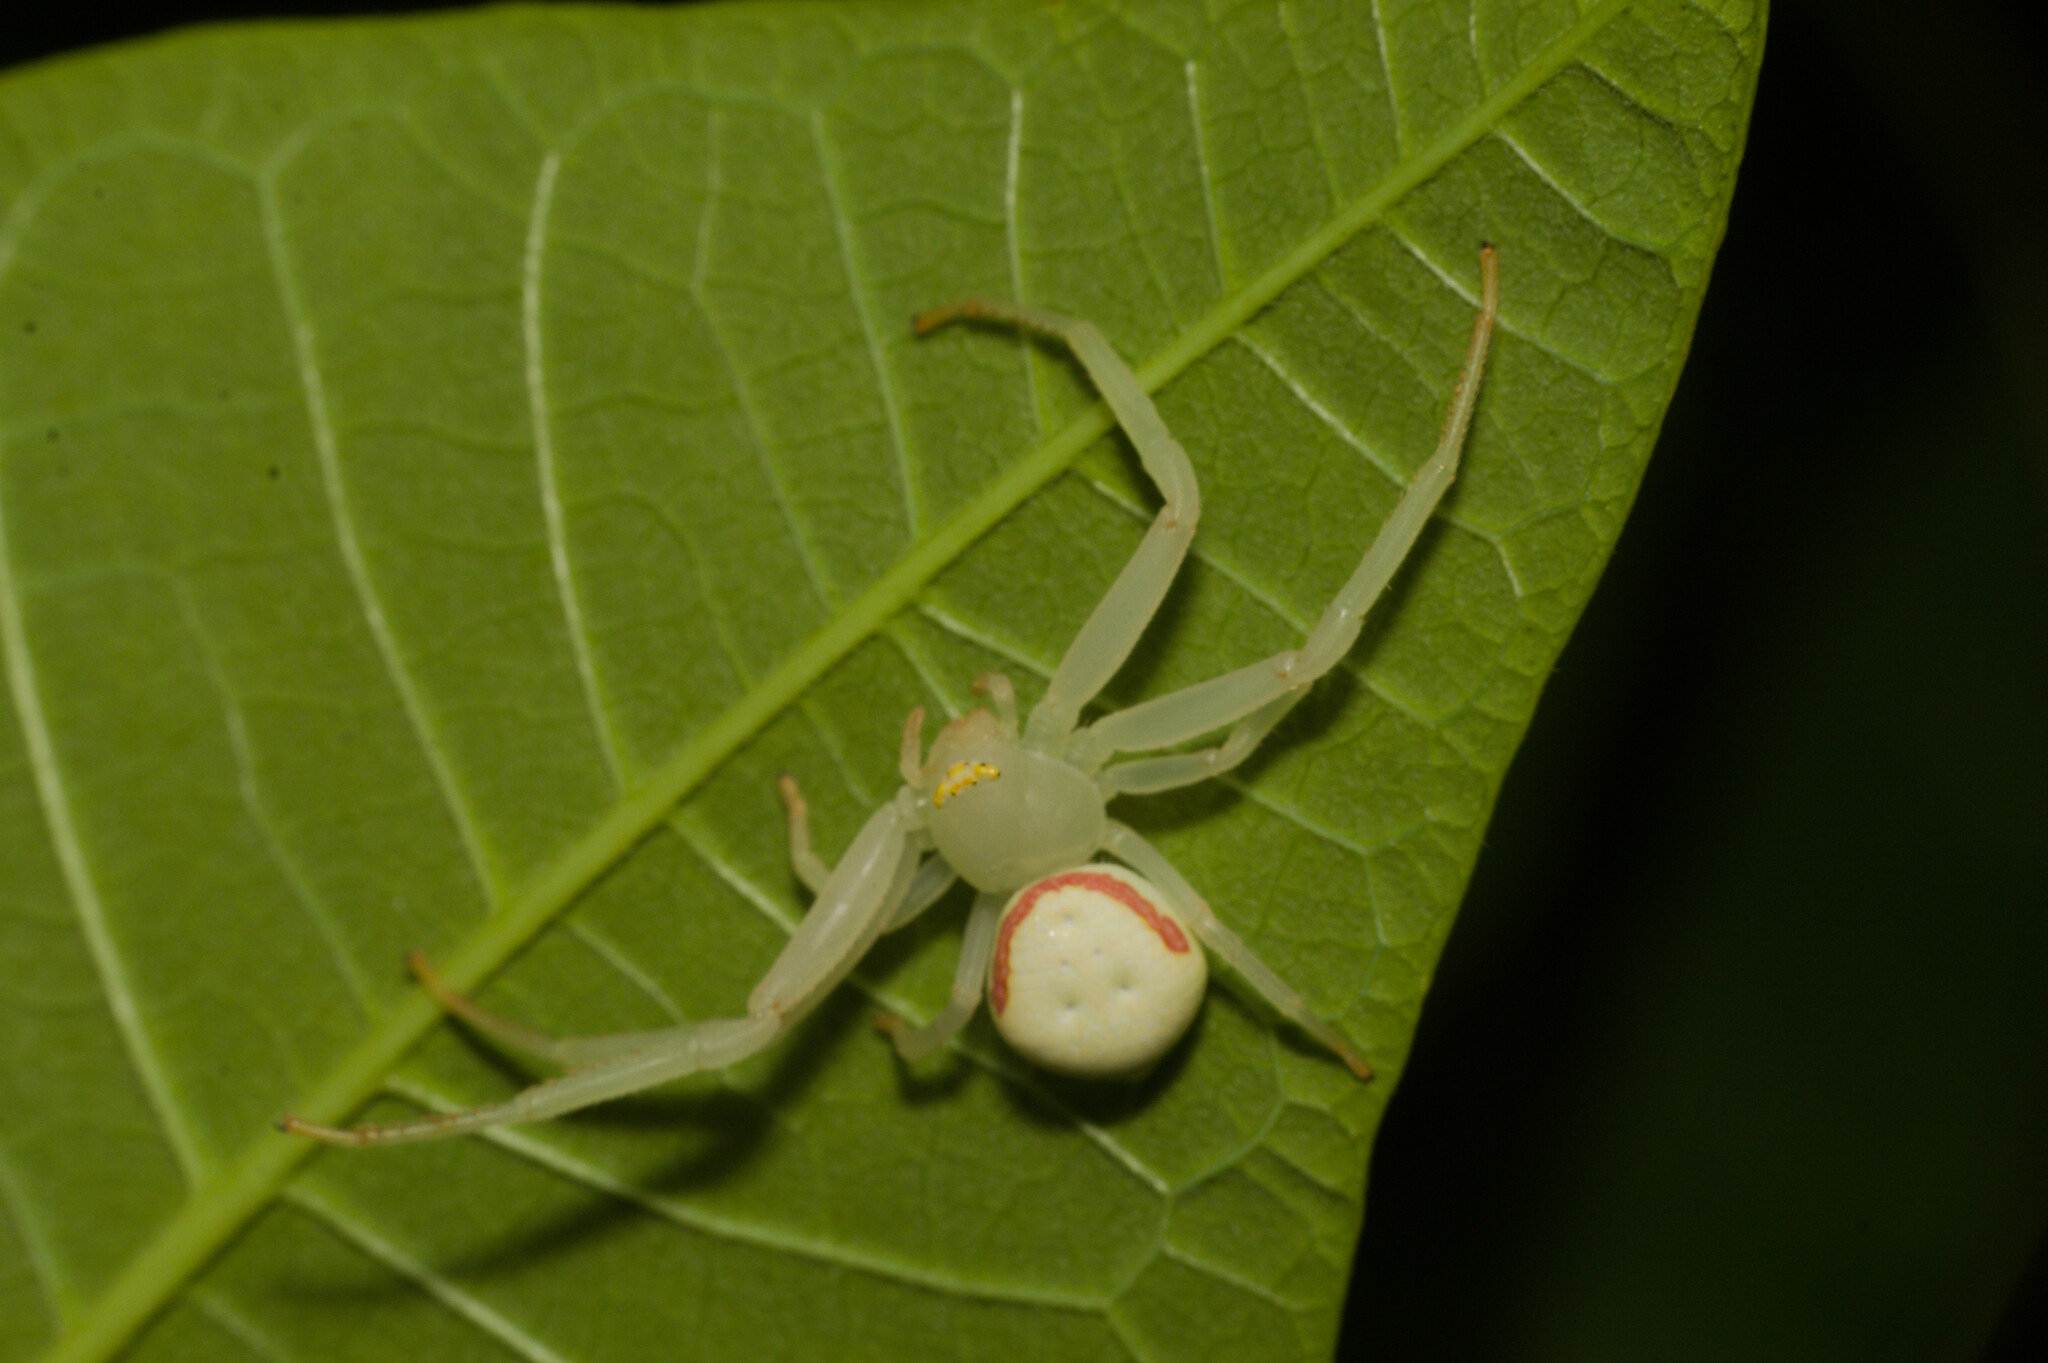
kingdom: Animalia
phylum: Arthropoda
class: Arachnida
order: Araneae
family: Thomisidae
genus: Misumenops
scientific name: Misumenops callinurus
